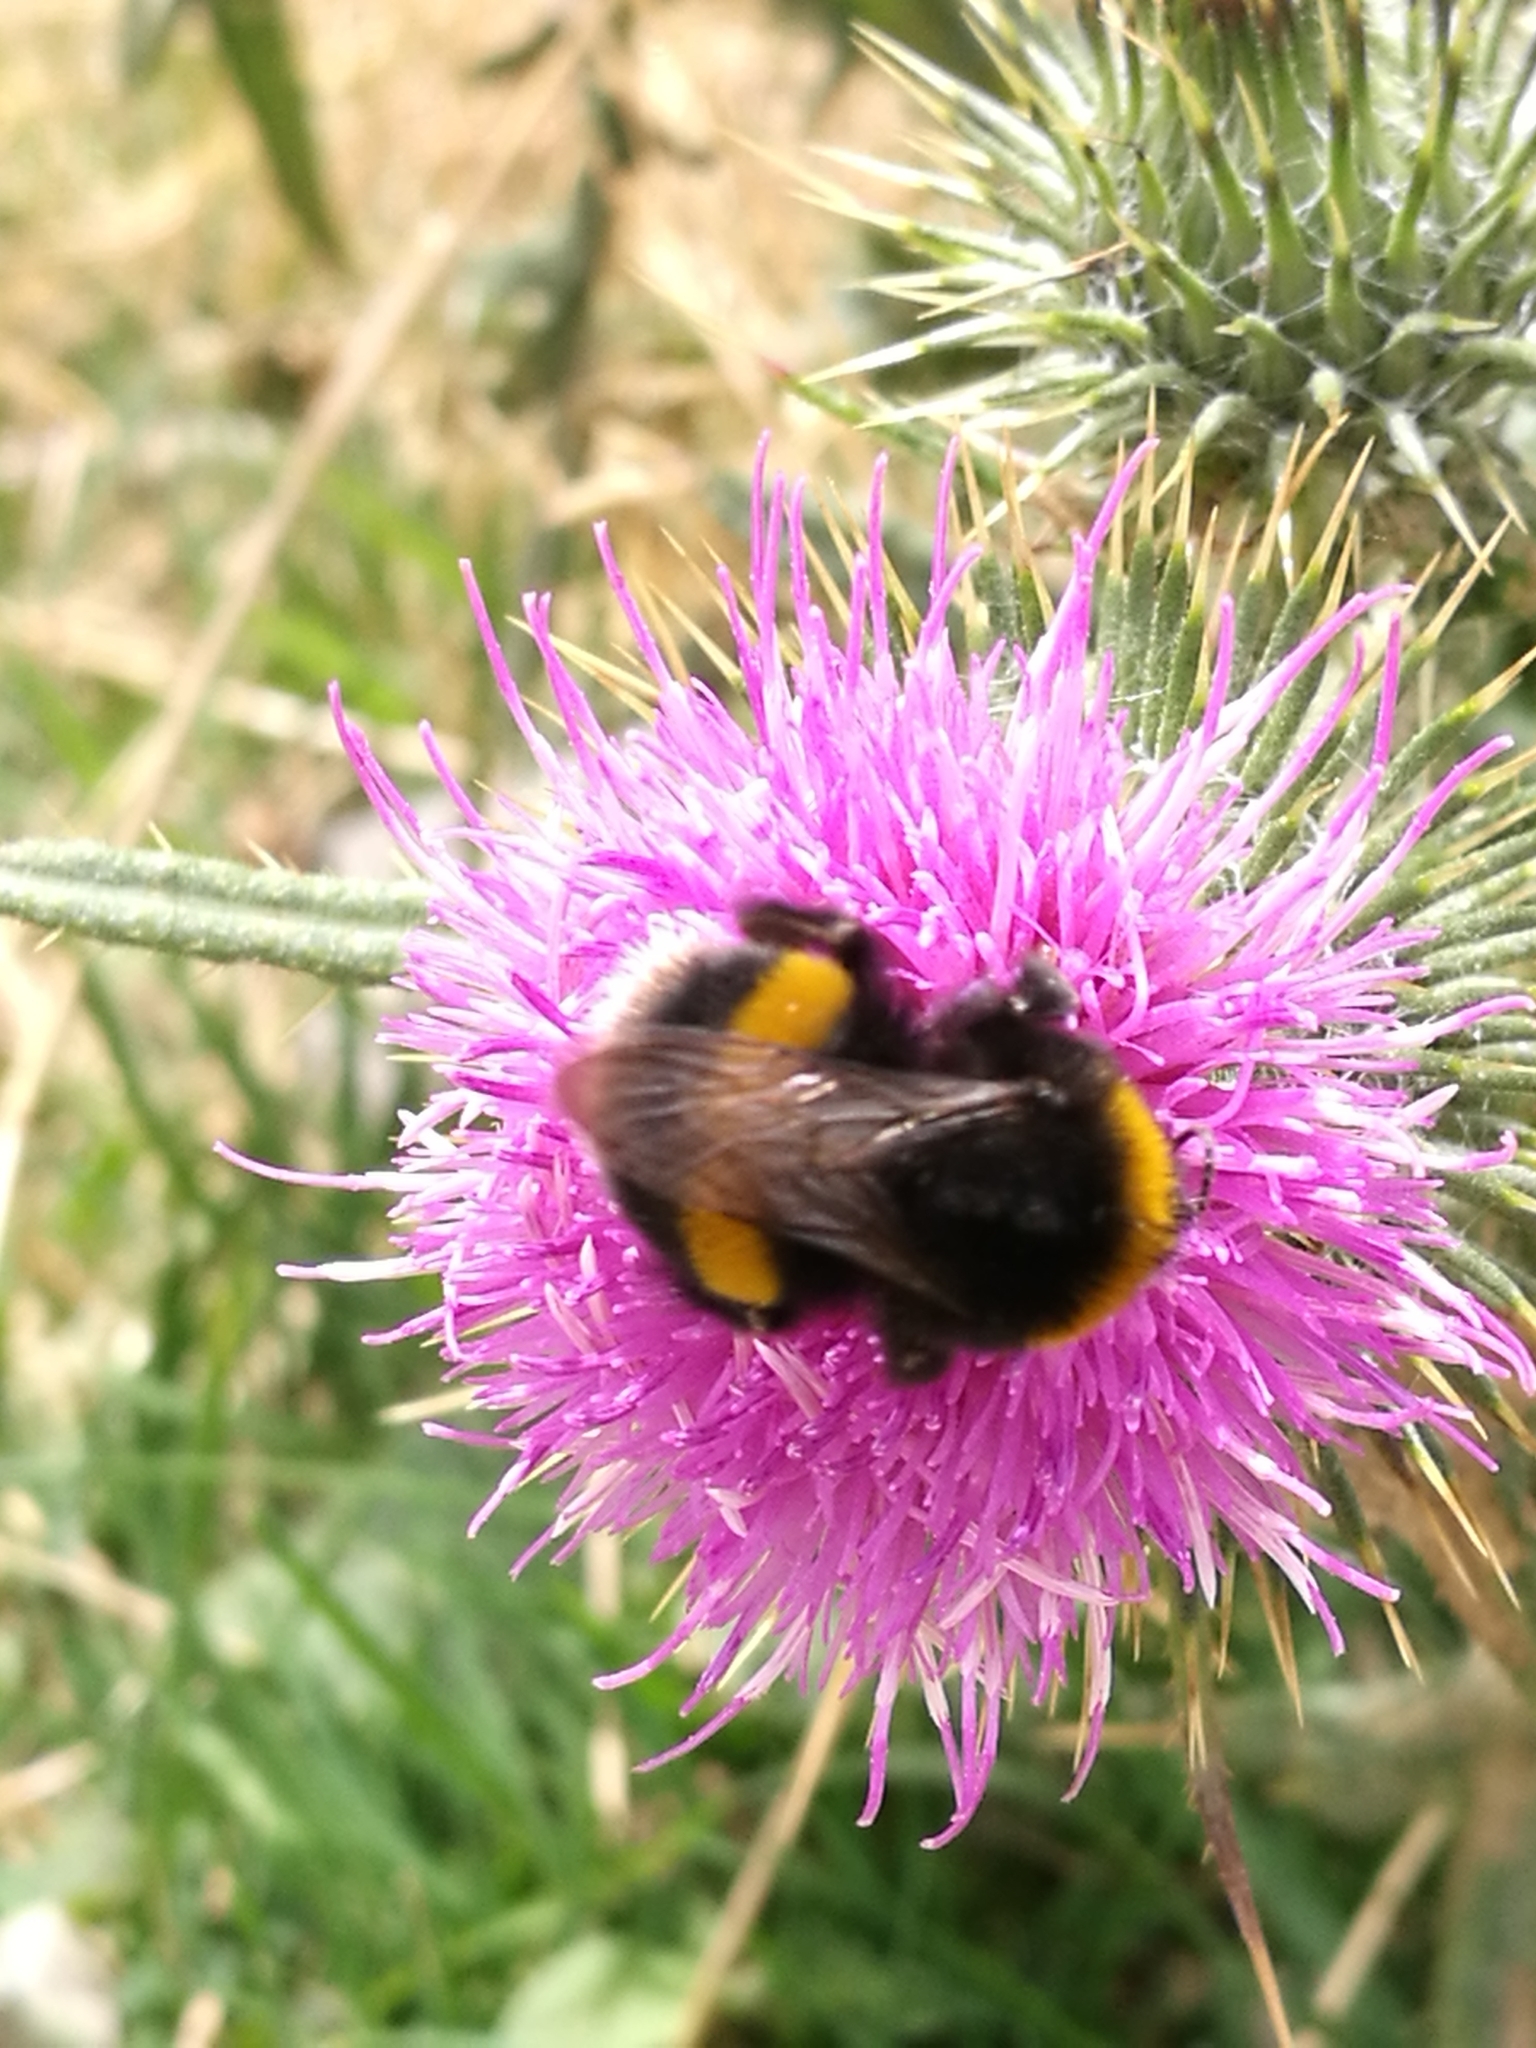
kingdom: Animalia
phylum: Arthropoda
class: Insecta
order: Hymenoptera
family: Apidae
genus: Bombus
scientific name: Bombus terrestris
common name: Buff-tailed bumblebee
